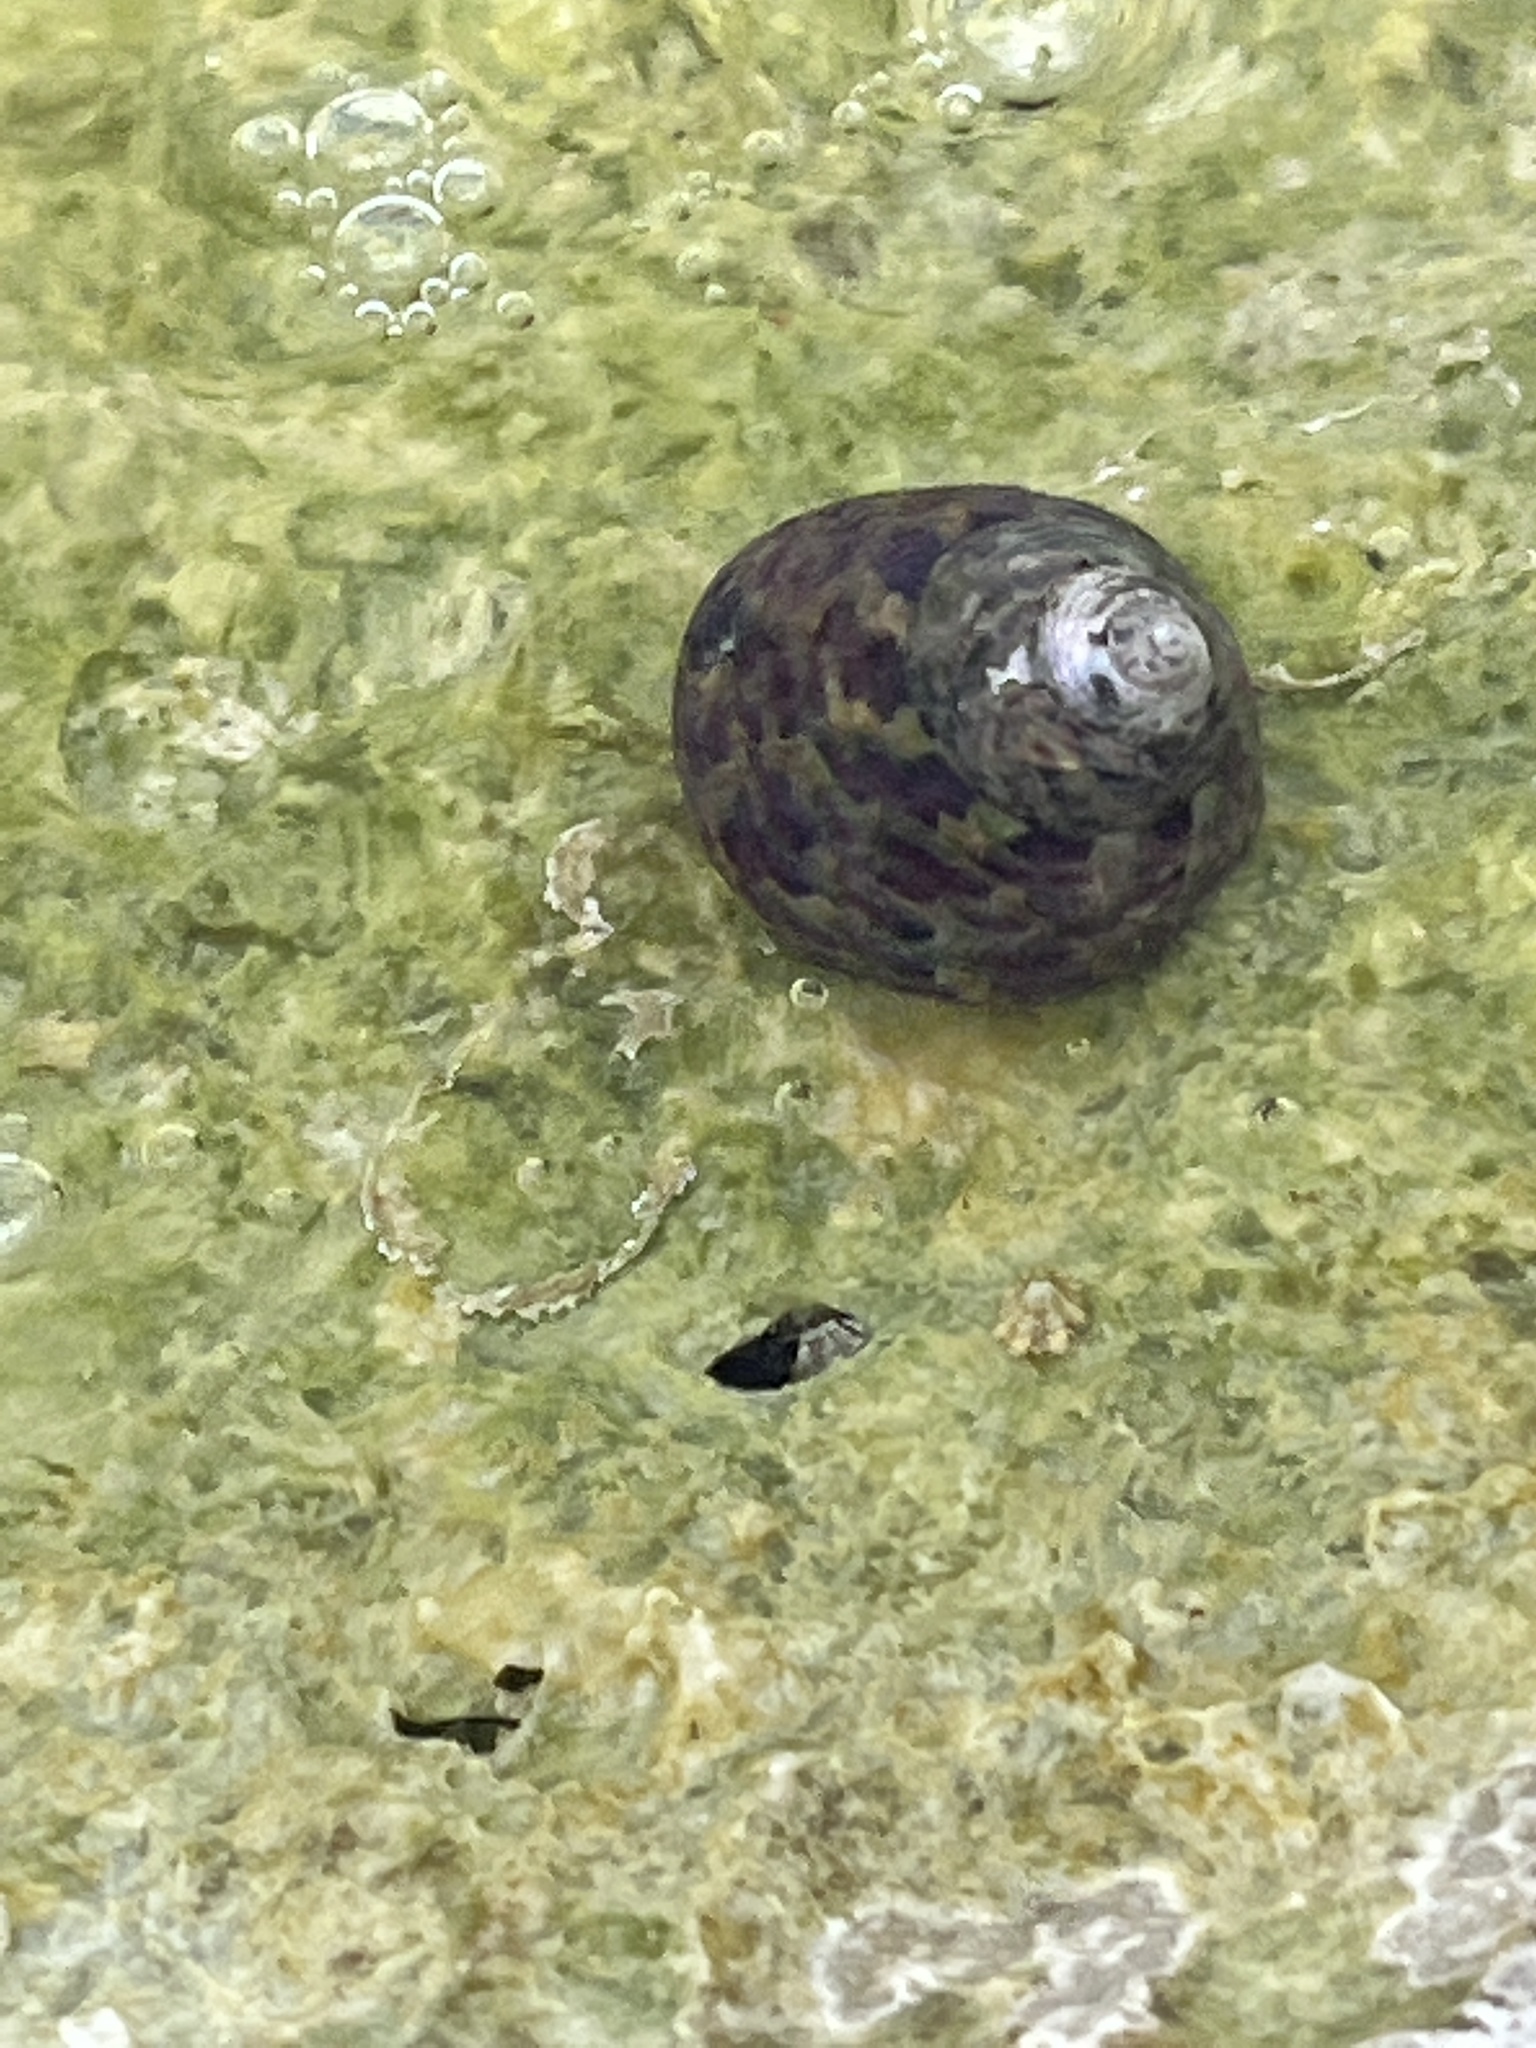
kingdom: Animalia
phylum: Mollusca
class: Gastropoda
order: Trochida
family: Trochidae
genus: Phorcus
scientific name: Phorcus turbinatus
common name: Turbinate monodont
